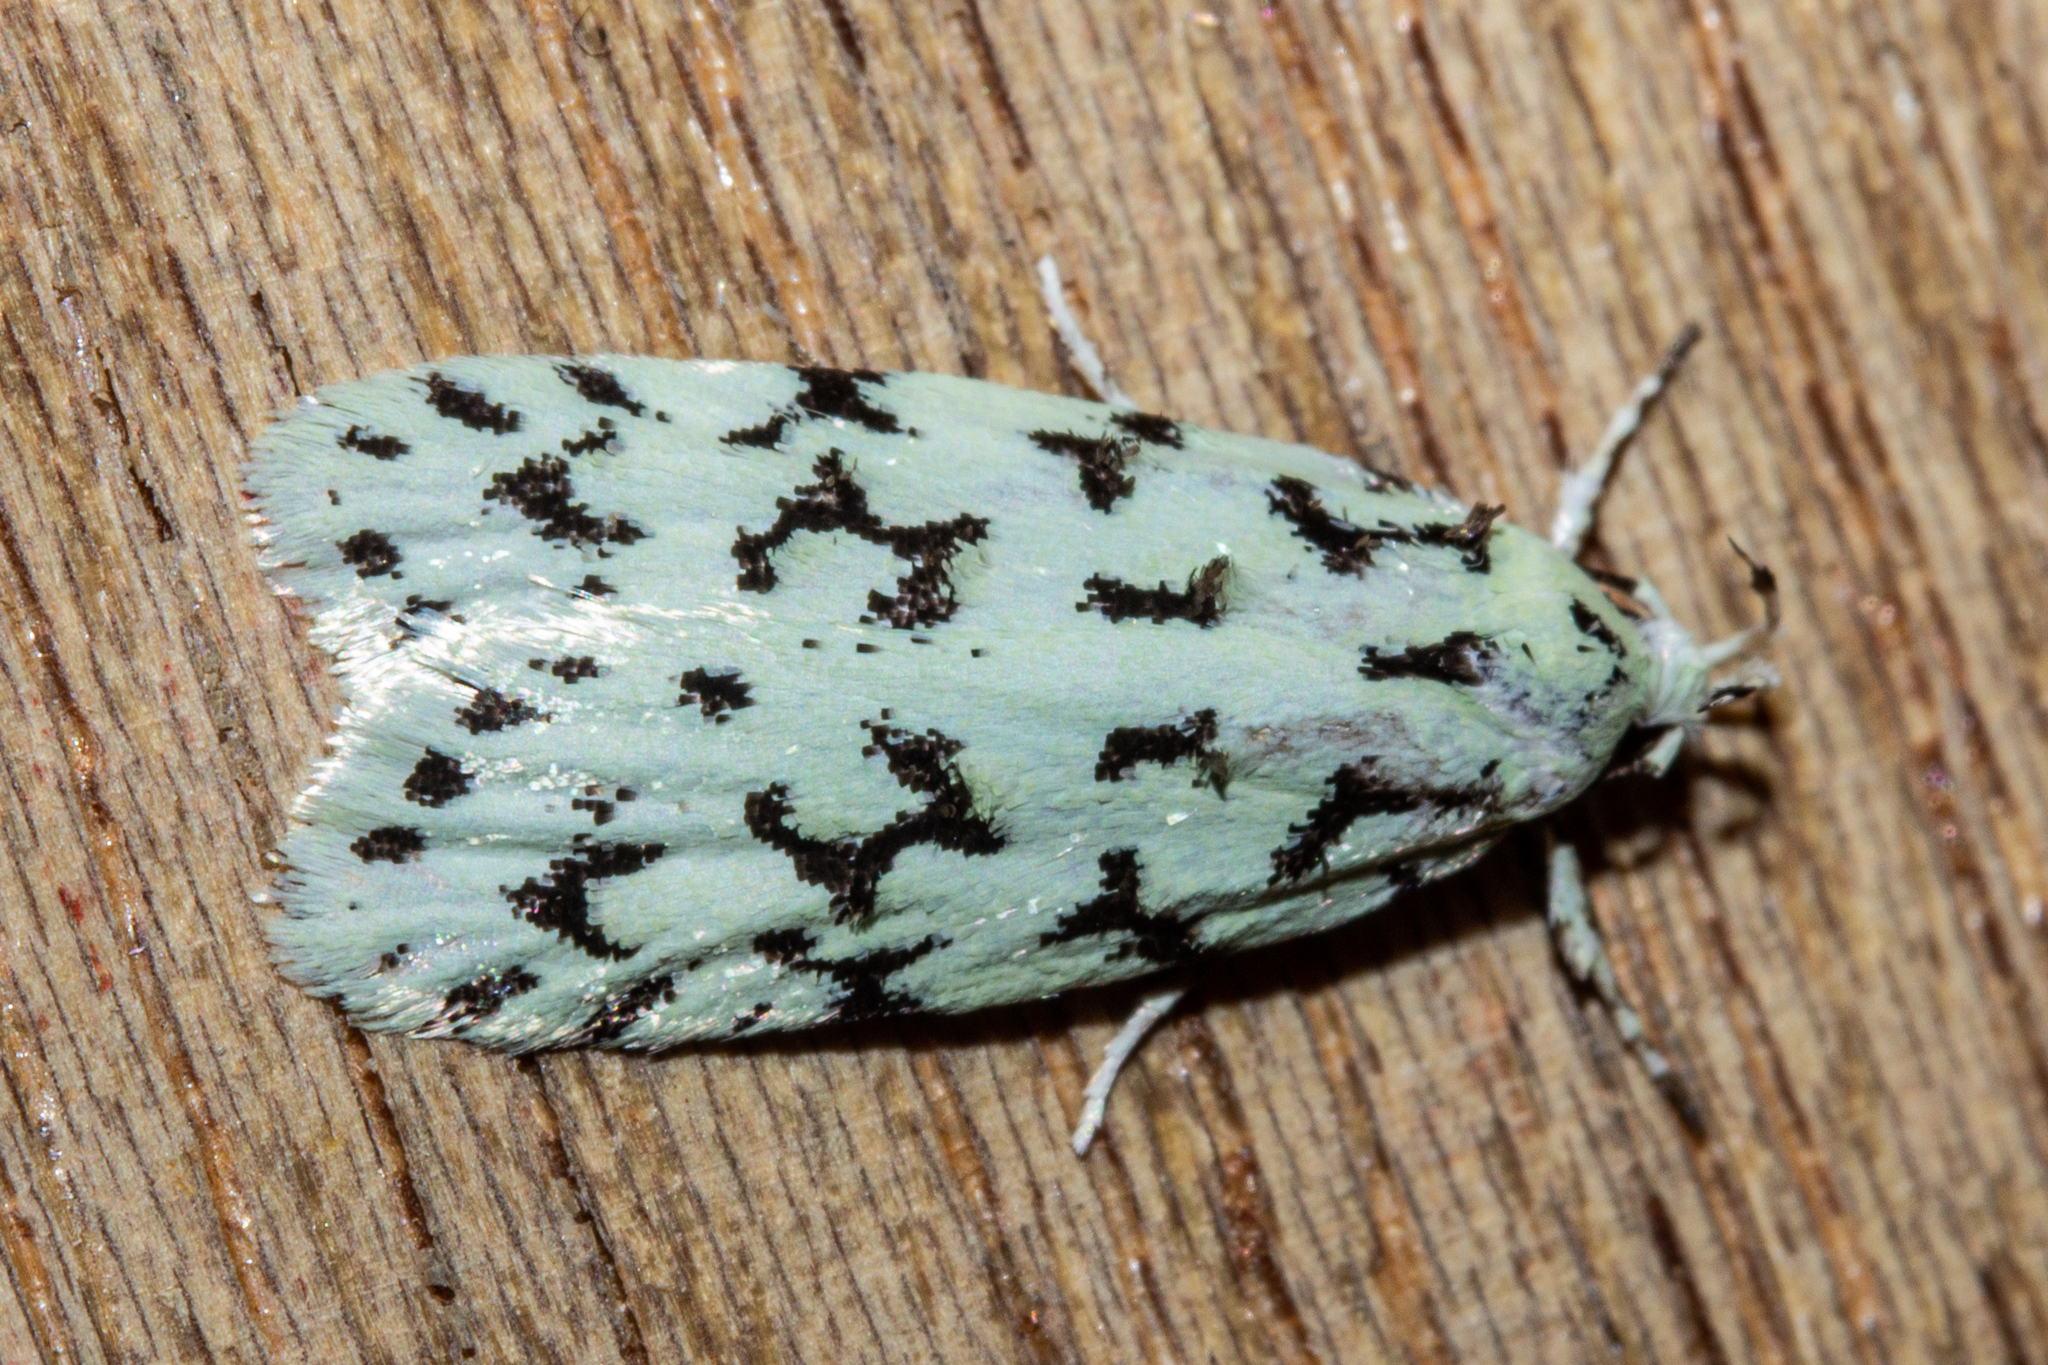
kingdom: Animalia
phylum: Arthropoda
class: Insecta
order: Lepidoptera
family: Oecophoridae
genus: Izatha
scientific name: Izatha huttoni
